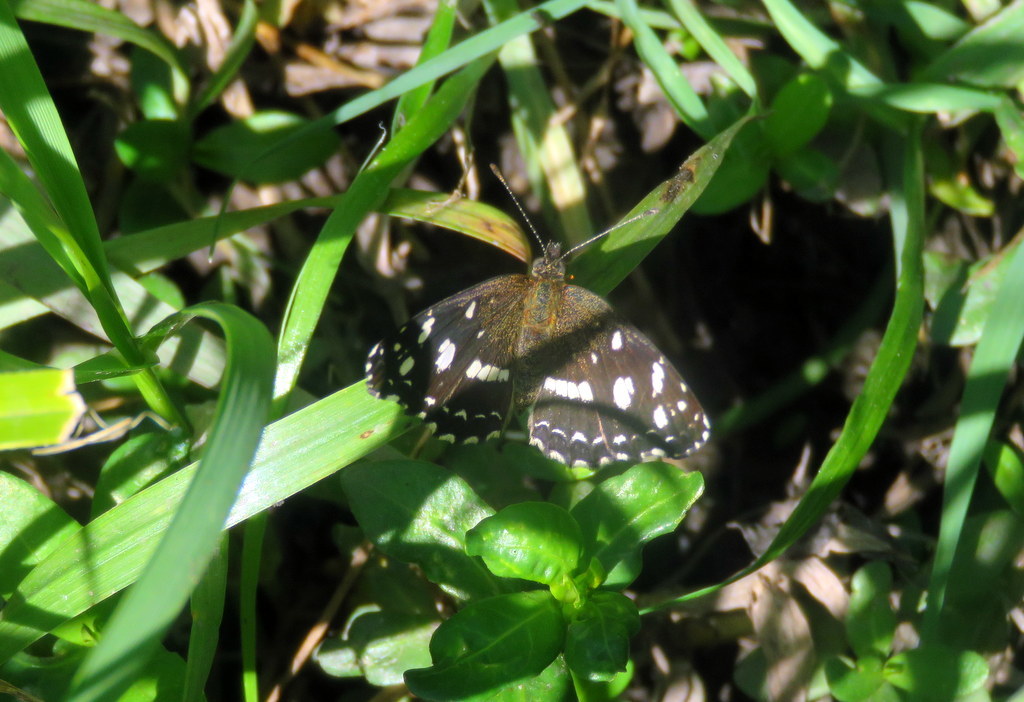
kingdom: Animalia
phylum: Arthropoda
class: Insecta
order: Lepidoptera
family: Nymphalidae
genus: Ortilia
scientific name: Ortilia ithra
